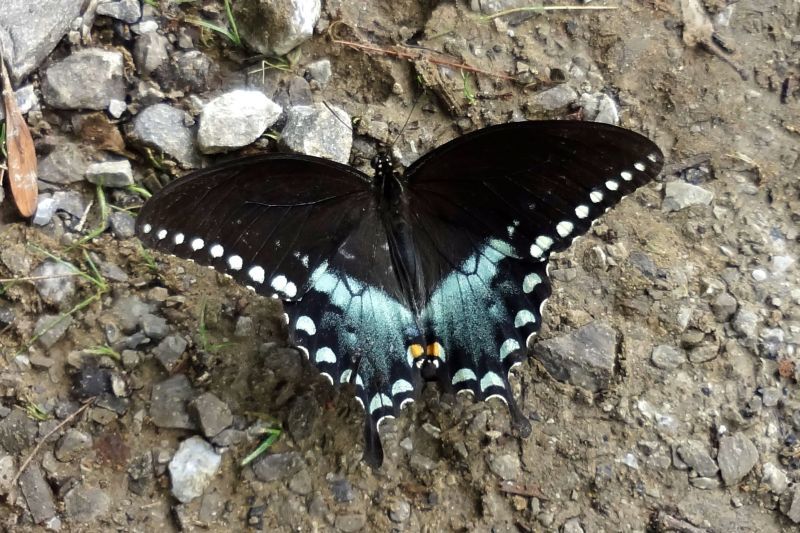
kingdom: Animalia
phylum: Arthropoda
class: Insecta
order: Lepidoptera
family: Papilionidae
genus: Papilio
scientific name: Papilio troilus
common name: Spicebush swallowtail
